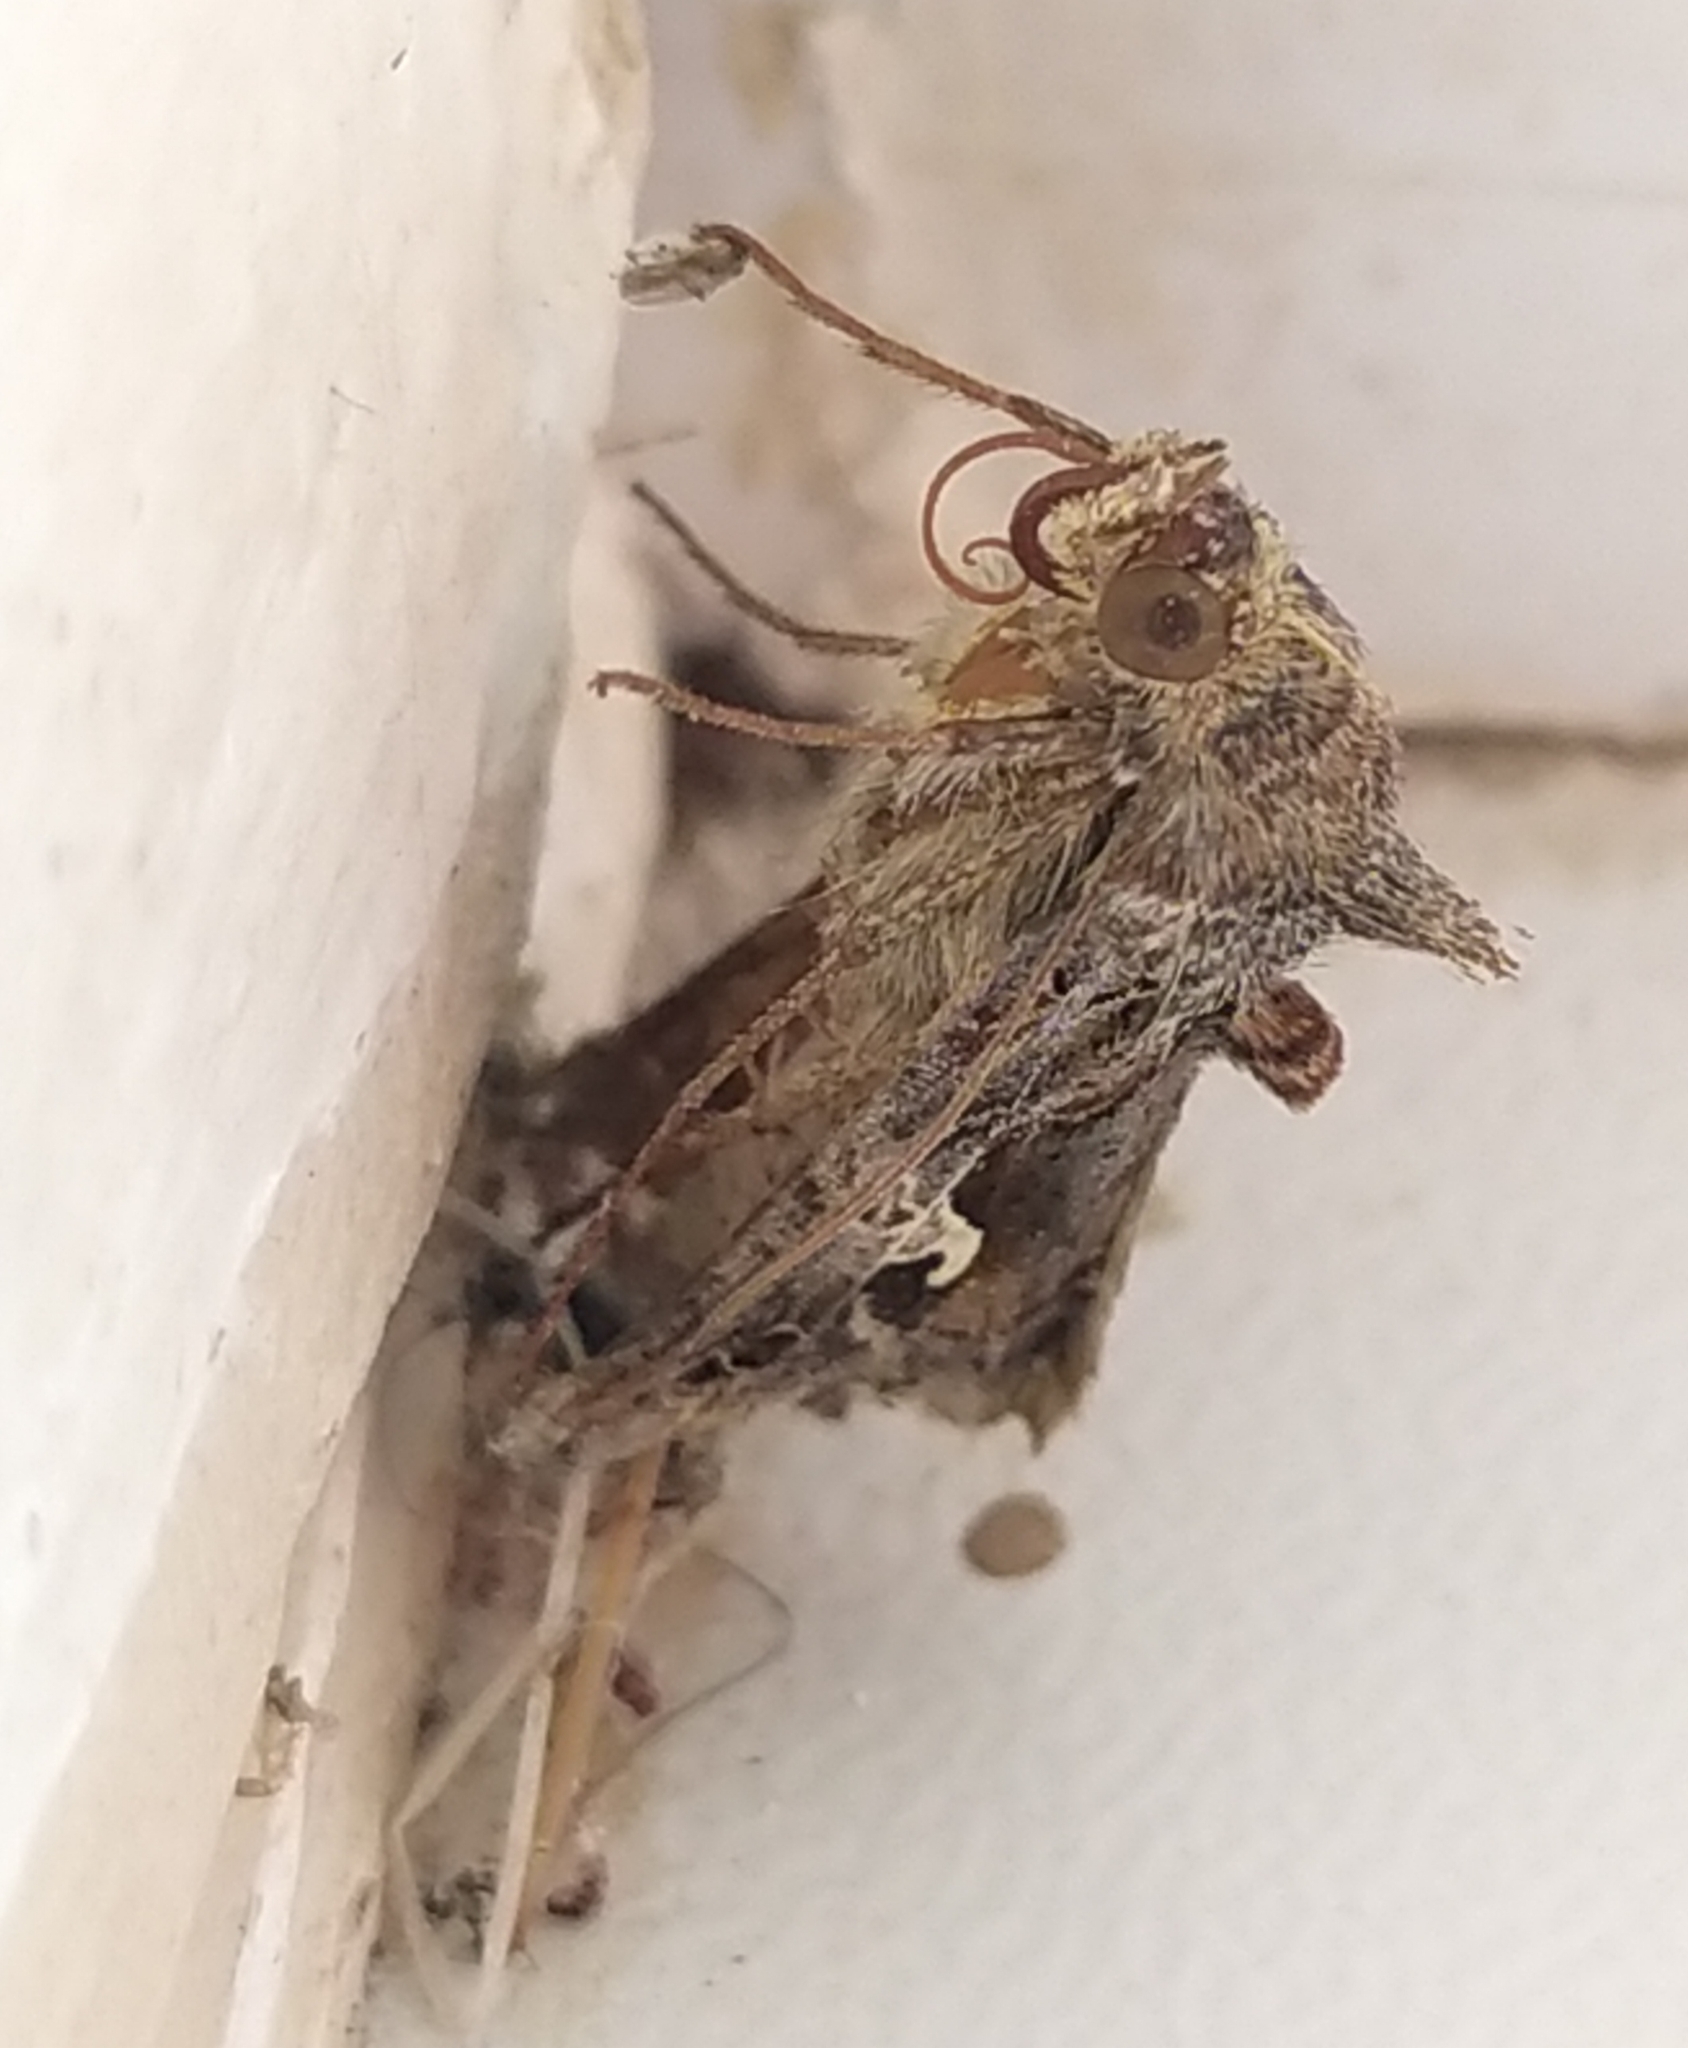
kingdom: Animalia
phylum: Arthropoda
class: Insecta
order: Lepidoptera
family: Noctuidae
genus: Autographa
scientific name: Autographa gamma
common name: Silver y
